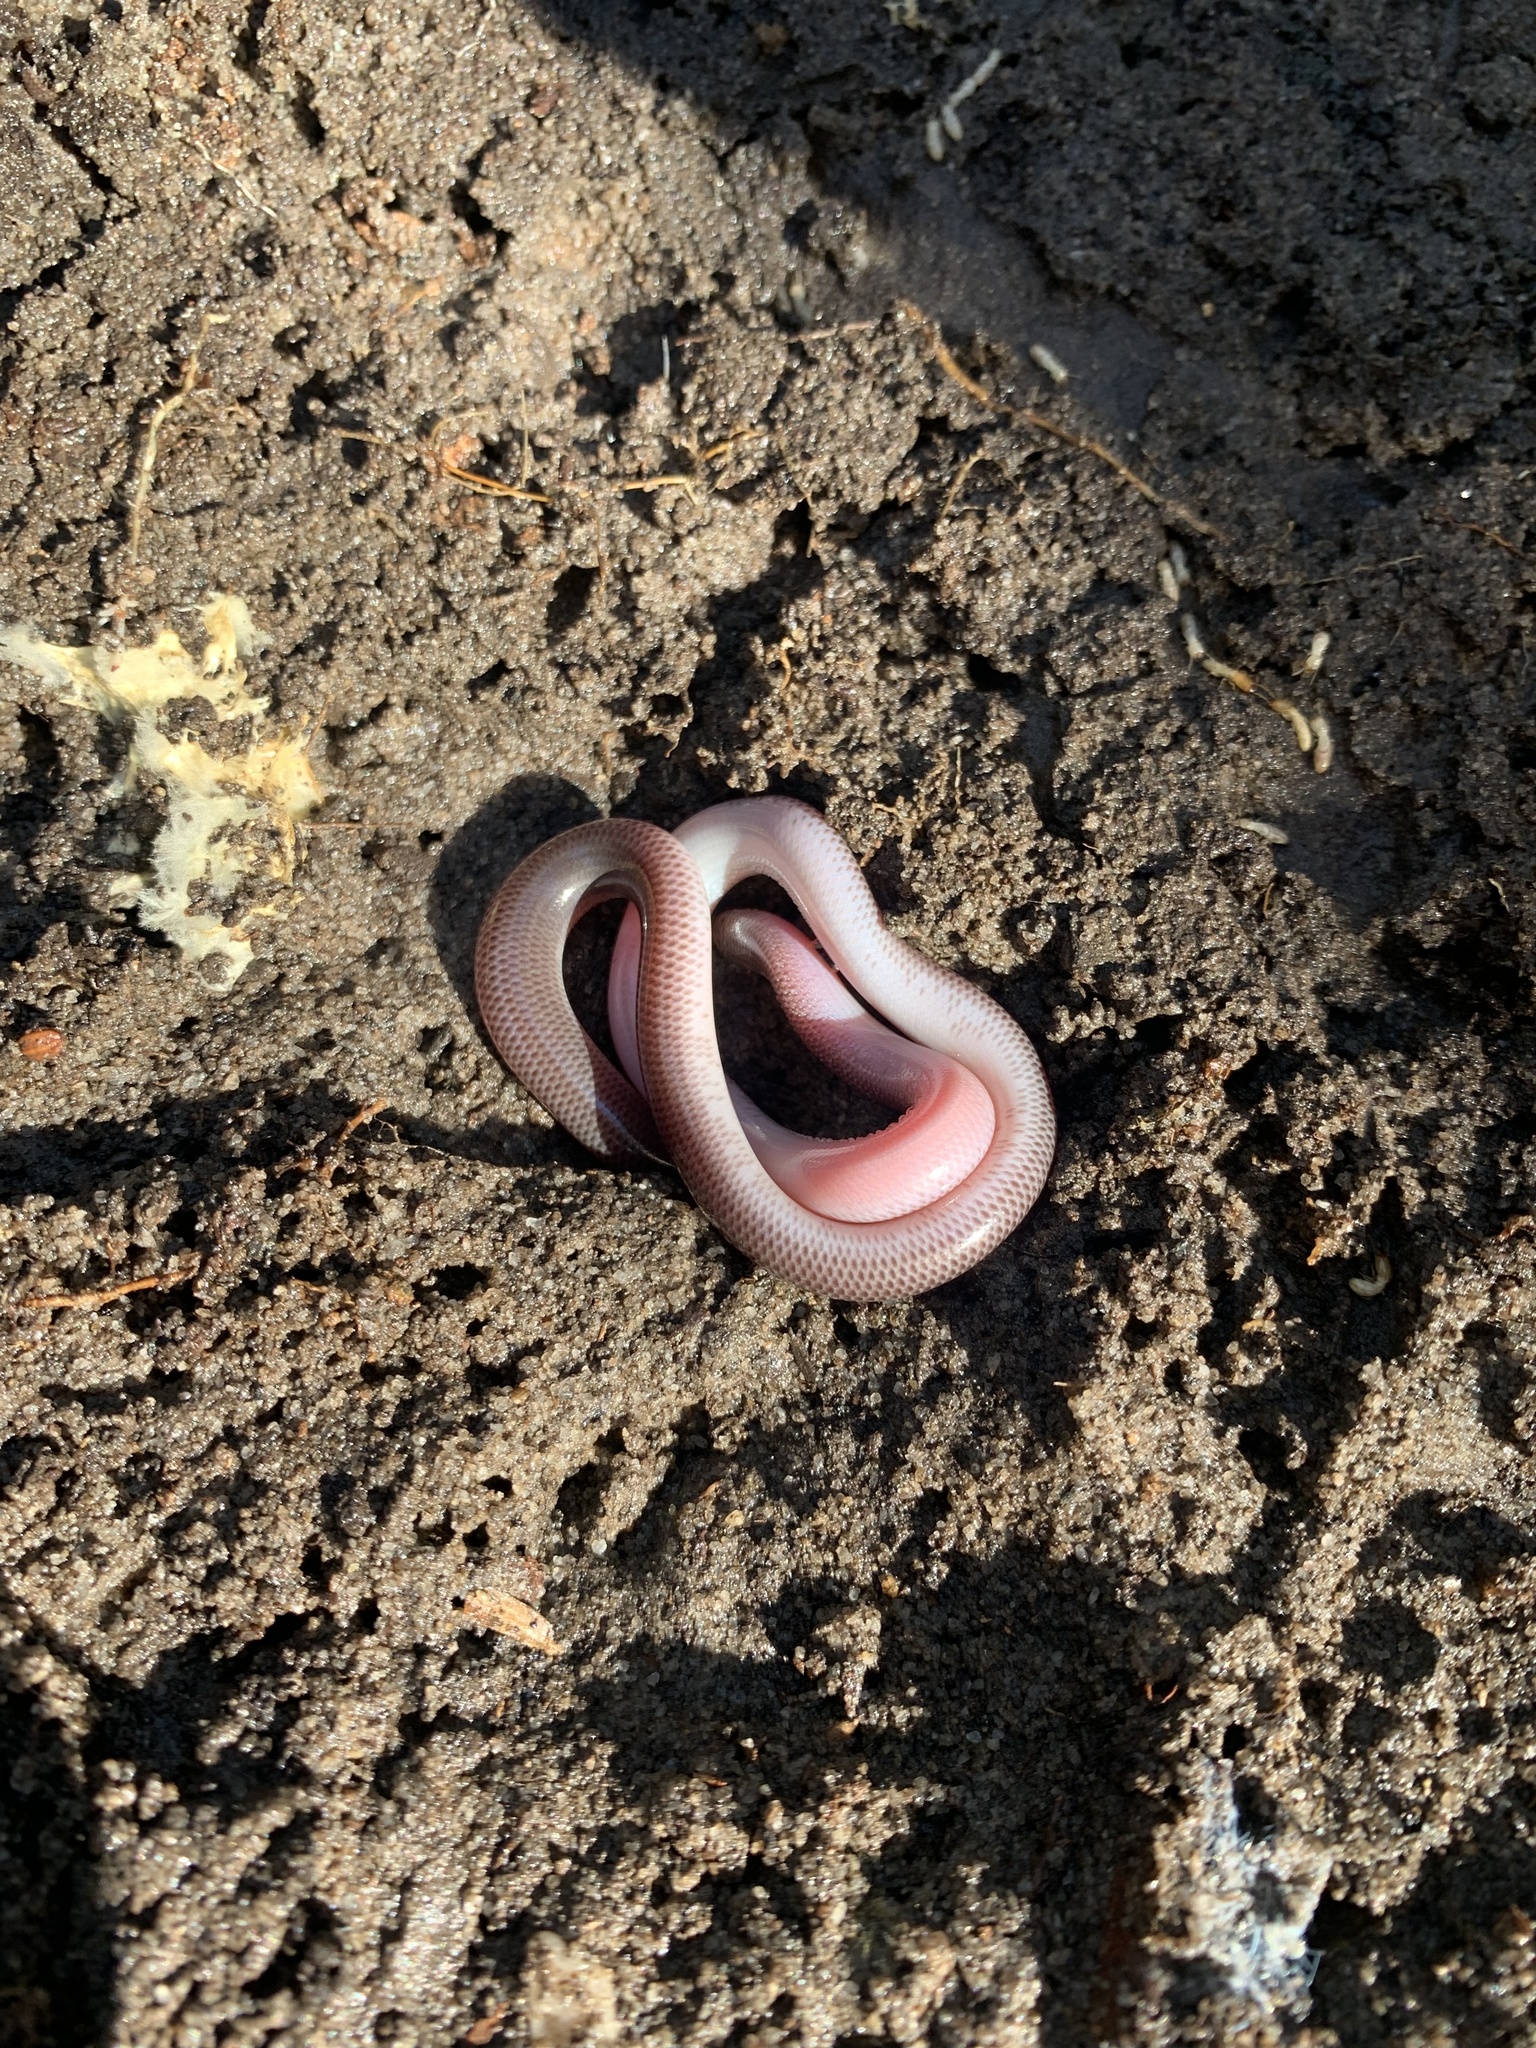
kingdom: Animalia
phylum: Chordata
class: Squamata
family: Typhlopidae
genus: Anilios
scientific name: Anilios nigrescens
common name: Blackish blind snake
